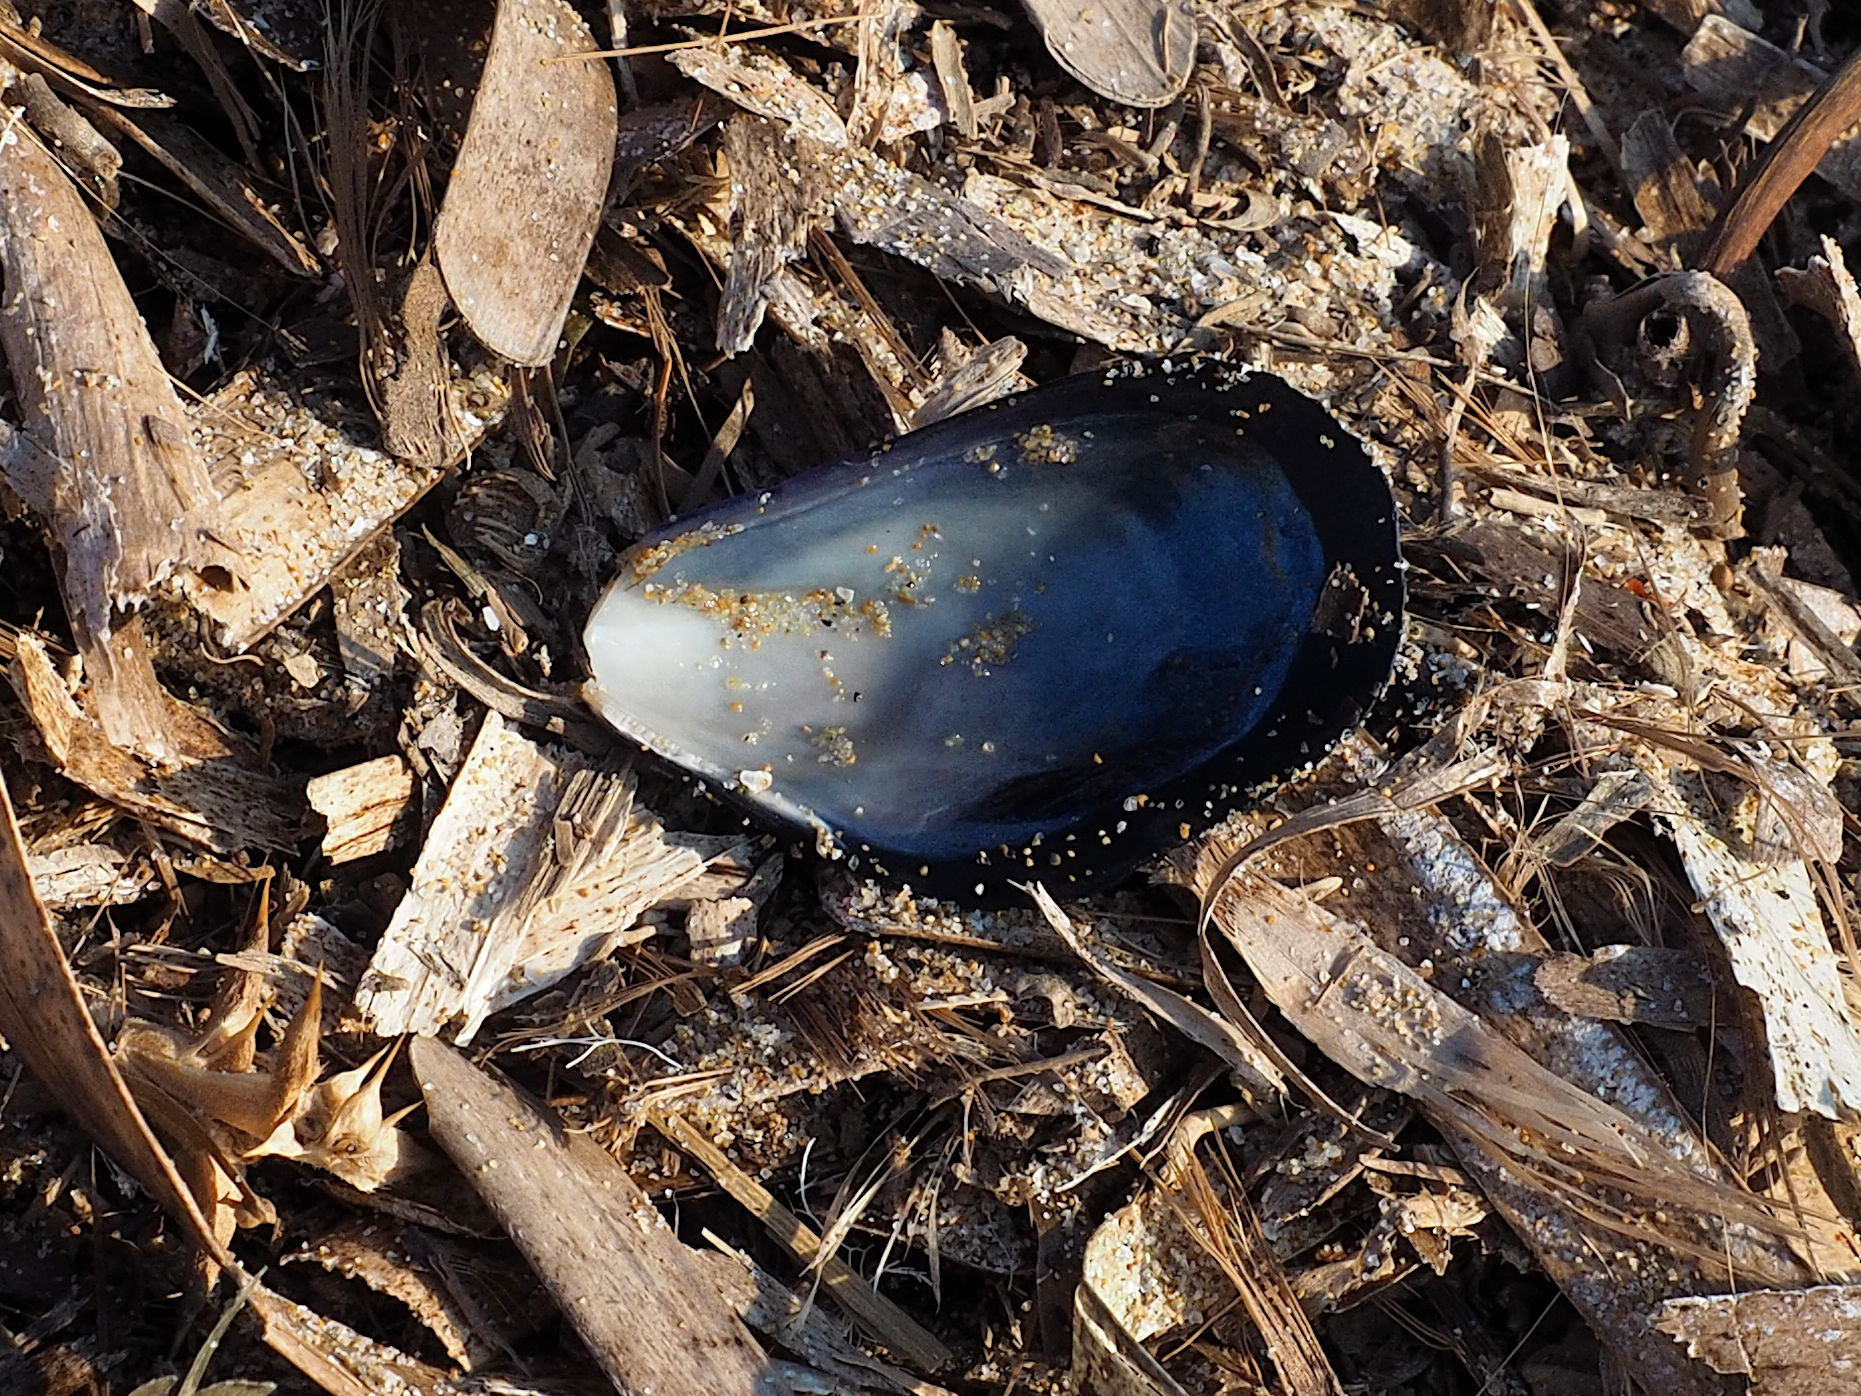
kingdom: Animalia
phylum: Mollusca
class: Bivalvia
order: Mytilida
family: Mytilidae
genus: Mytilus
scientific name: Mytilus galloprovincialis
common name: Mediterranean mussel
